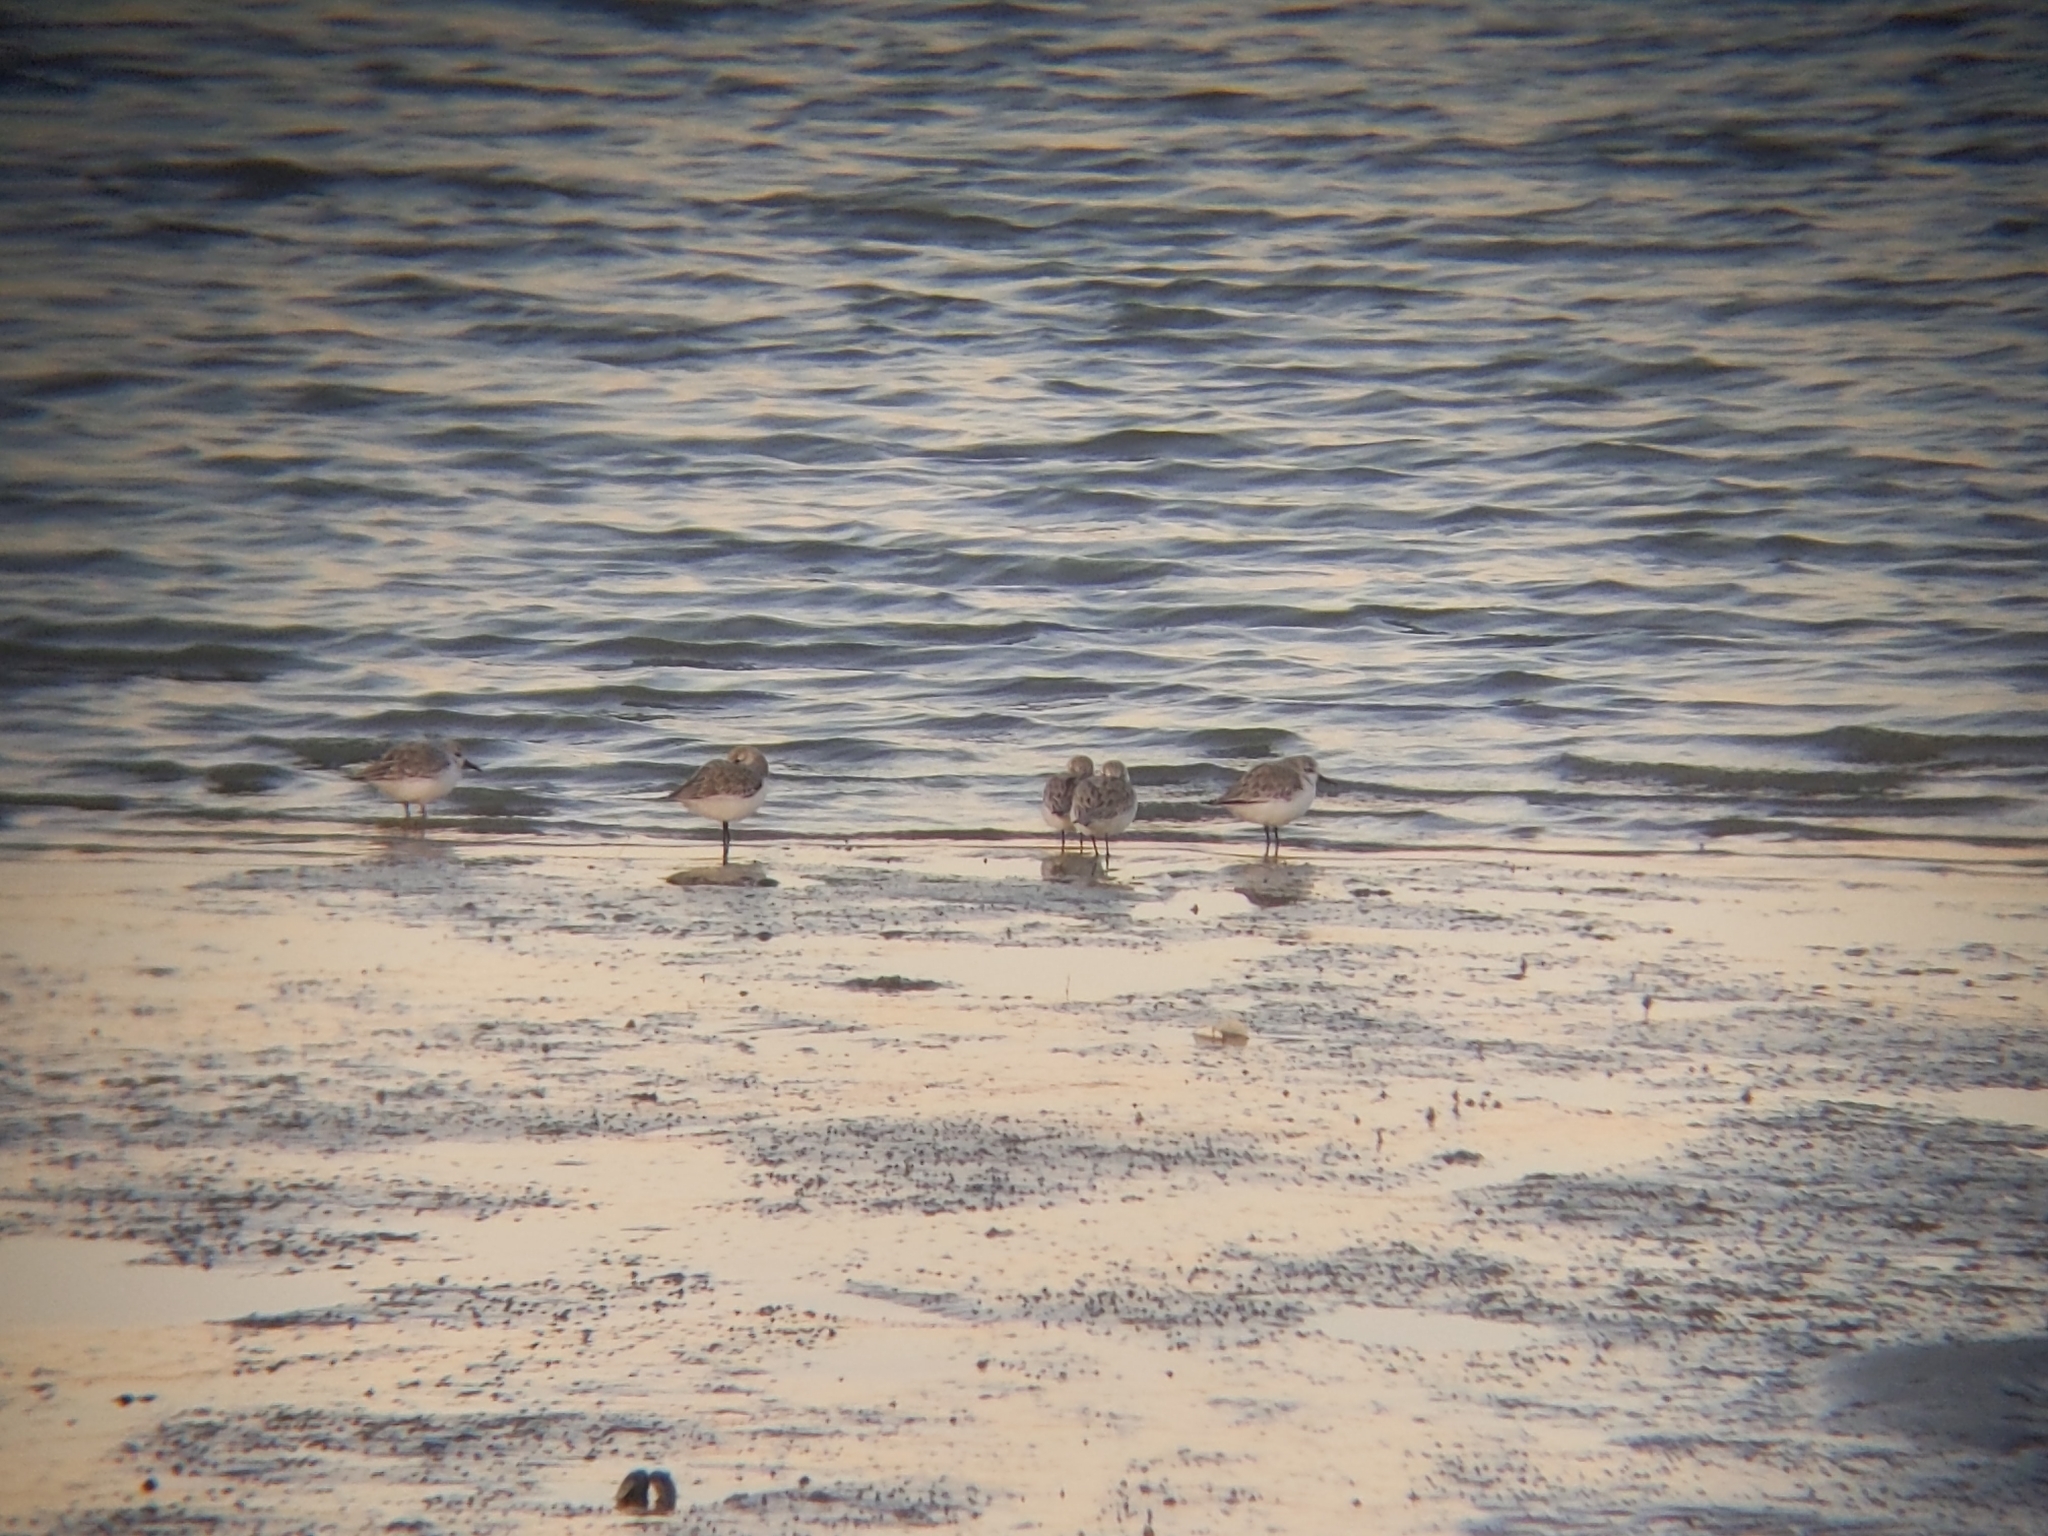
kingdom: Animalia
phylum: Chordata
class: Aves
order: Charadriiformes
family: Scolopacidae
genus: Calidris
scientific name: Calidris alba
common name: Sanderling
